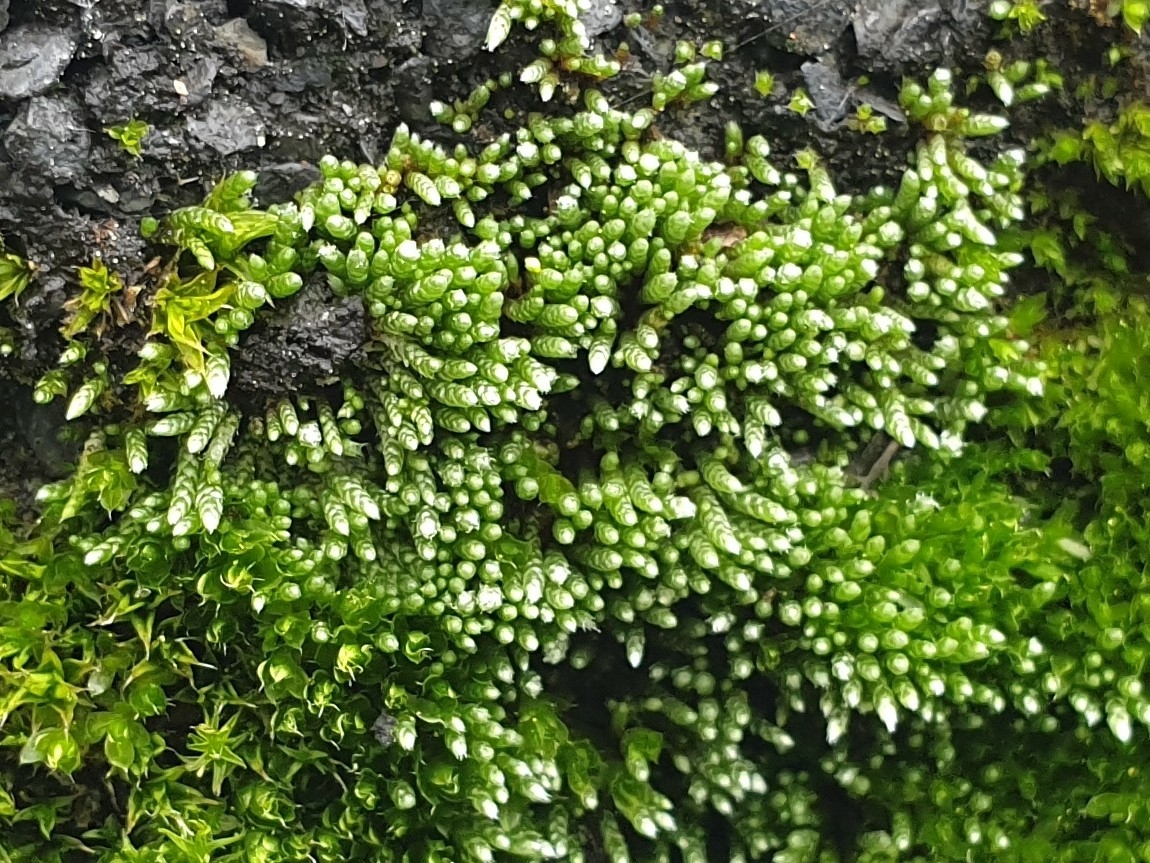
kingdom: Plantae
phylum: Bryophyta
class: Bryopsida
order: Bryales
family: Bryaceae
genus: Bryum
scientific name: Bryum argenteum
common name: Silver-moss
